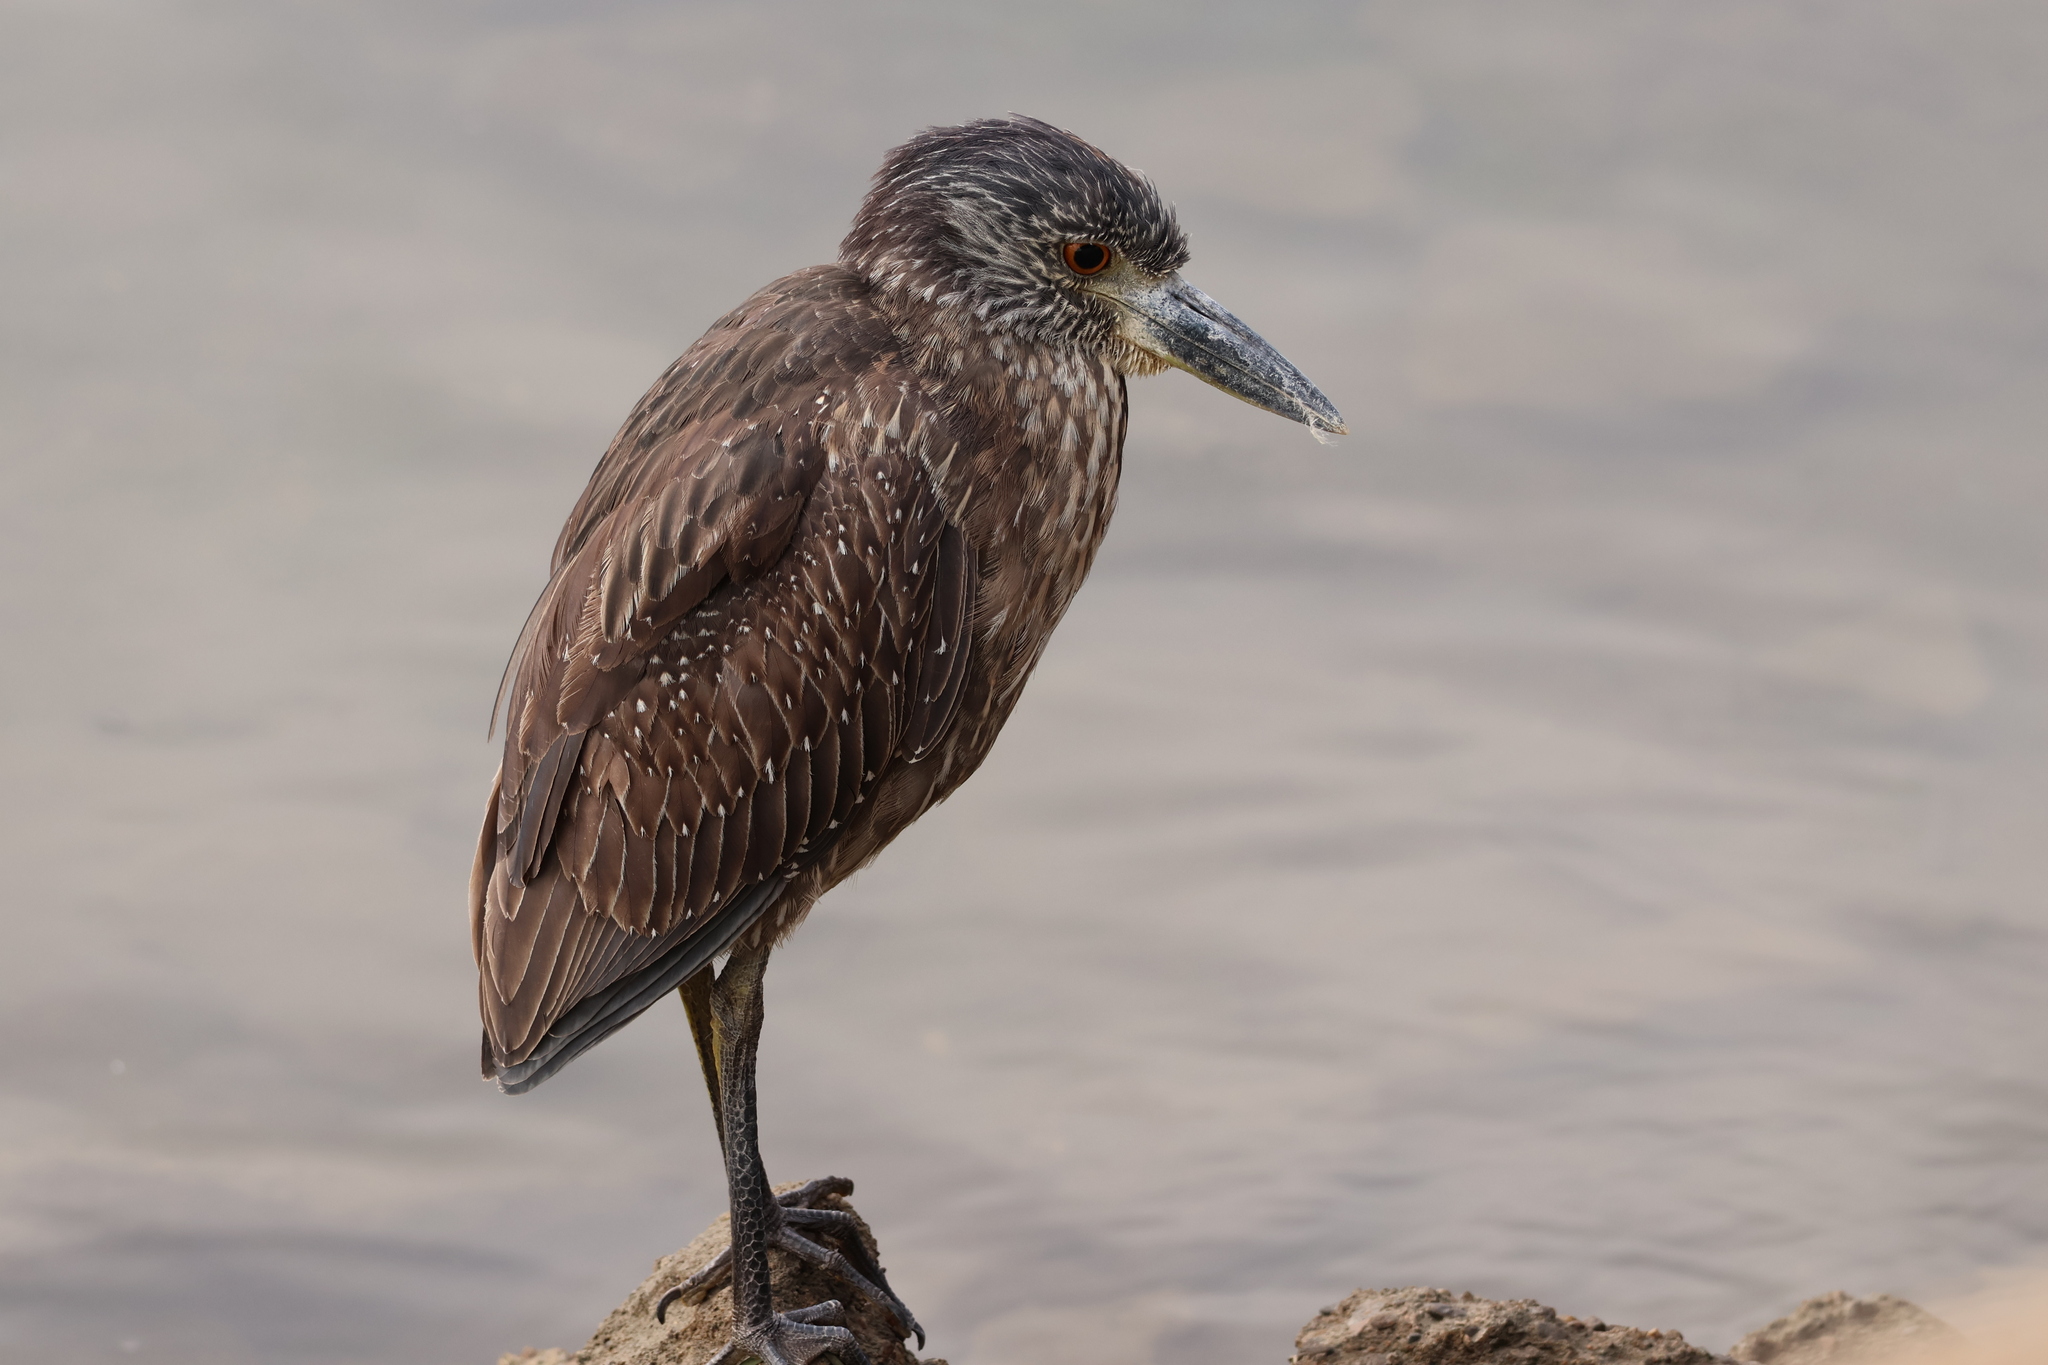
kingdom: Animalia
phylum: Chordata
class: Aves
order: Pelecaniformes
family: Ardeidae
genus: Nyctanassa
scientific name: Nyctanassa violacea
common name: Yellow-crowned night heron
